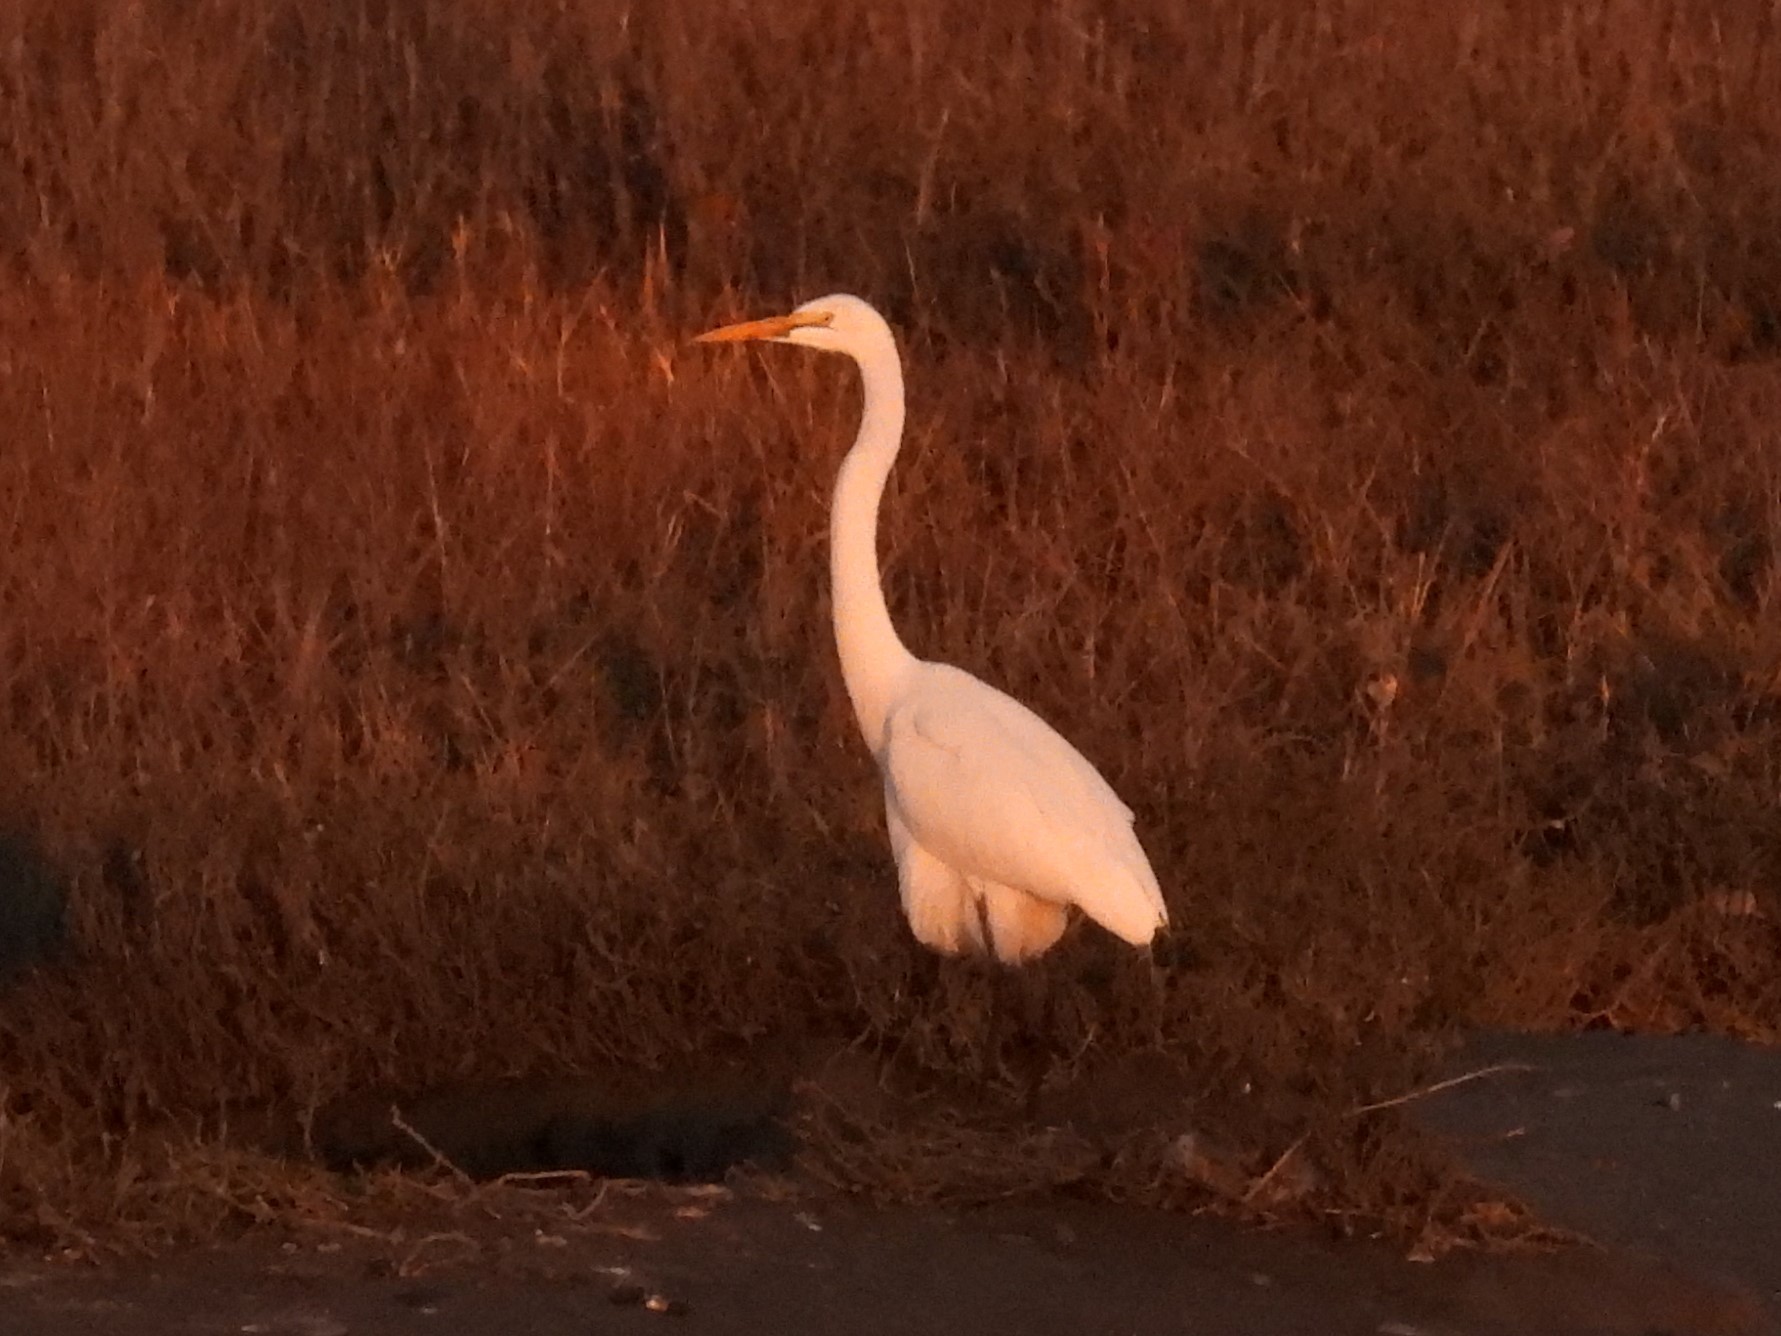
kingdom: Animalia
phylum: Chordata
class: Aves
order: Pelecaniformes
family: Ardeidae
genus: Ardea
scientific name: Ardea alba
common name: Great egret
